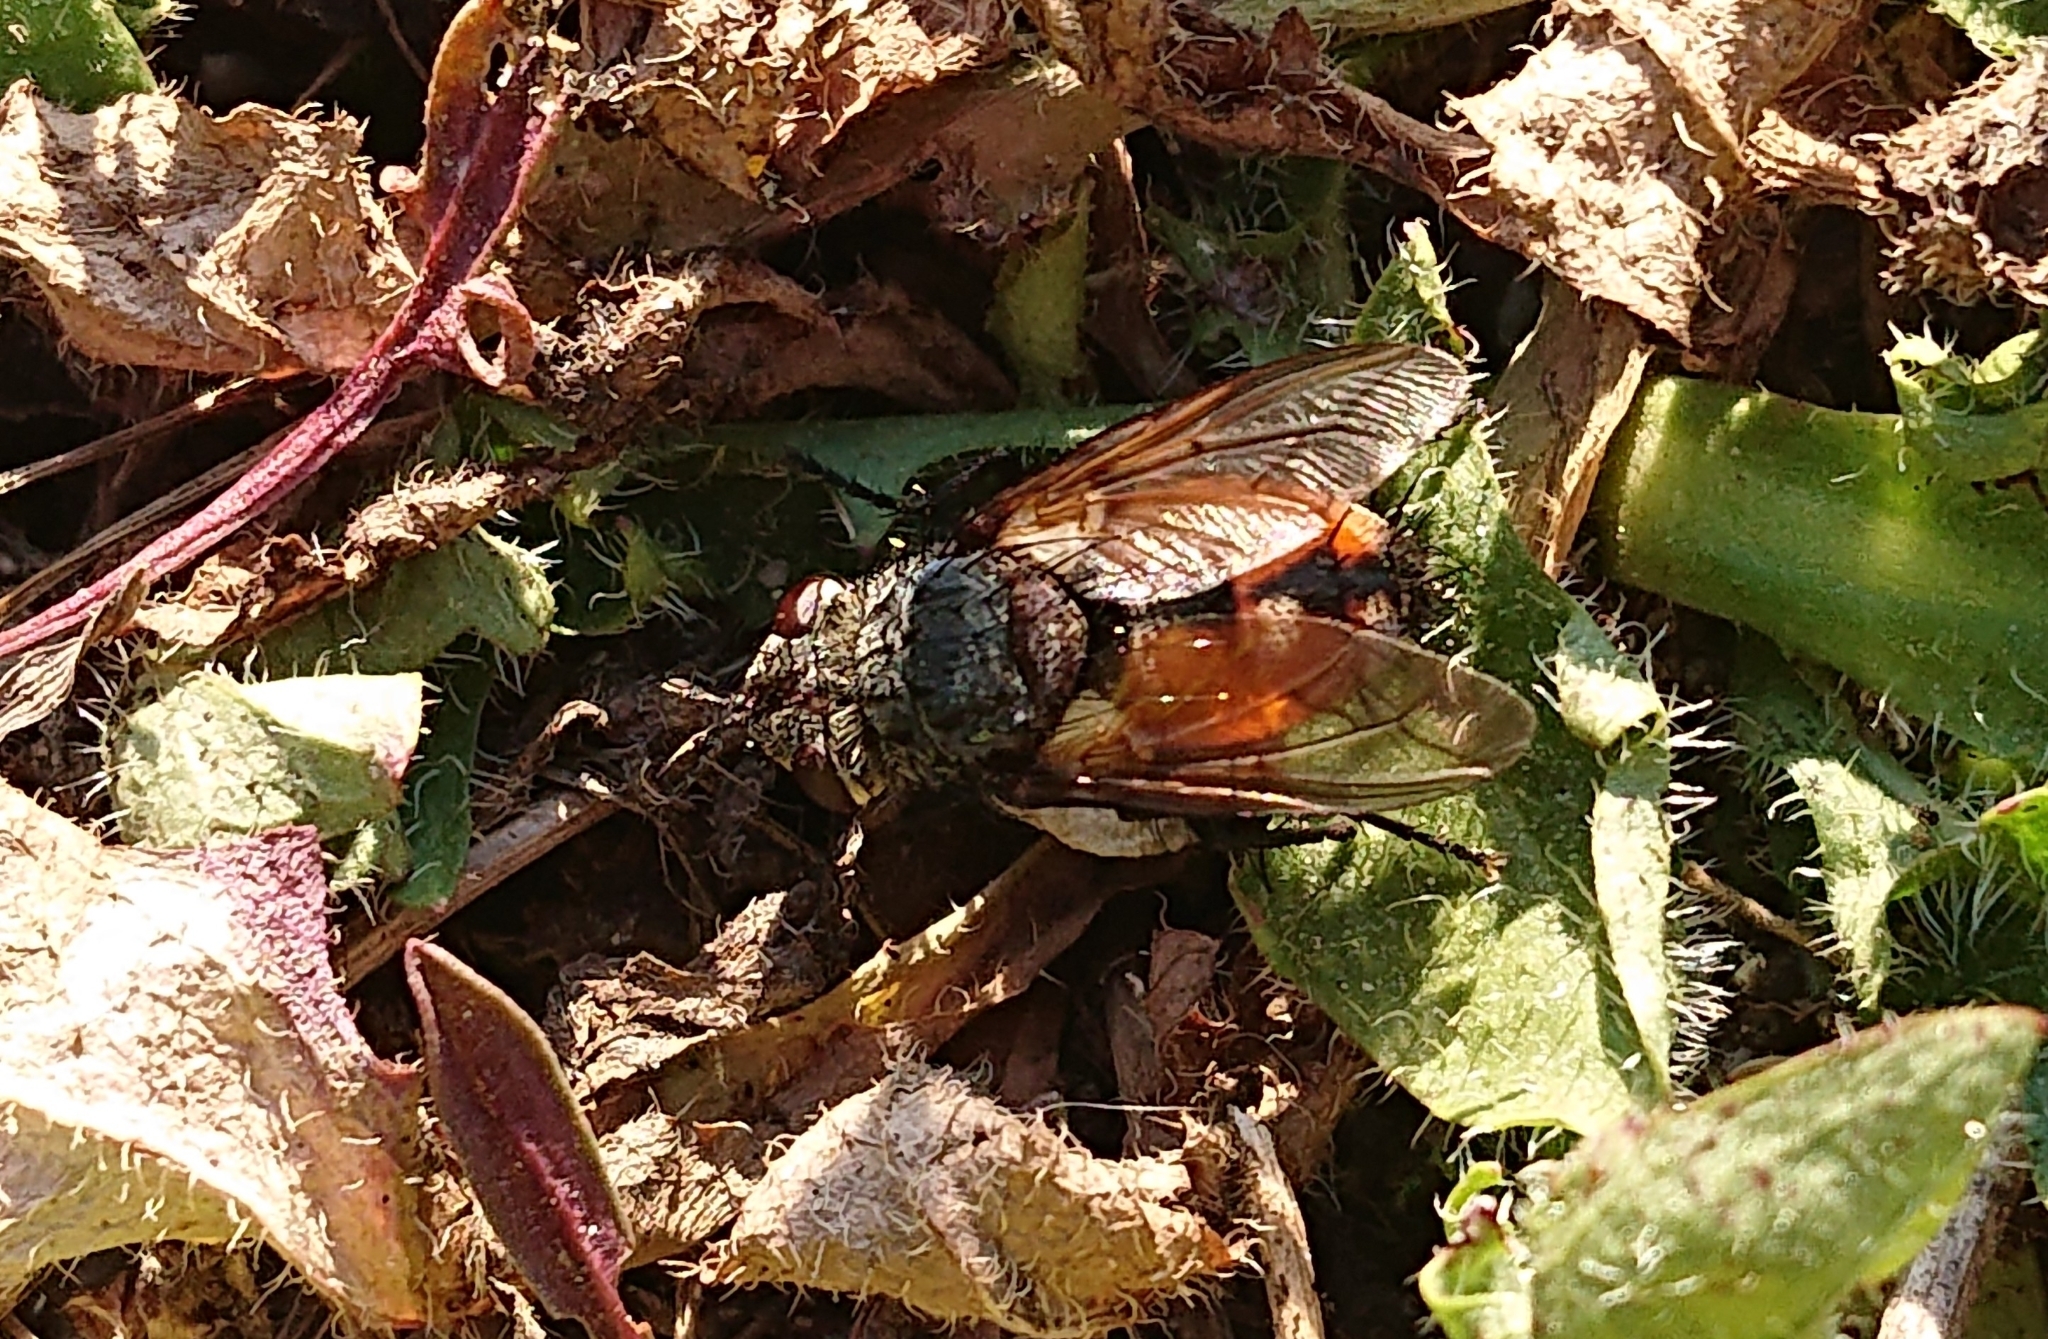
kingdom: Animalia
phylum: Arthropoda
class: Insecta
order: Diptera
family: Tachinidae
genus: Peleteria
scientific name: Peleteria rubescens
